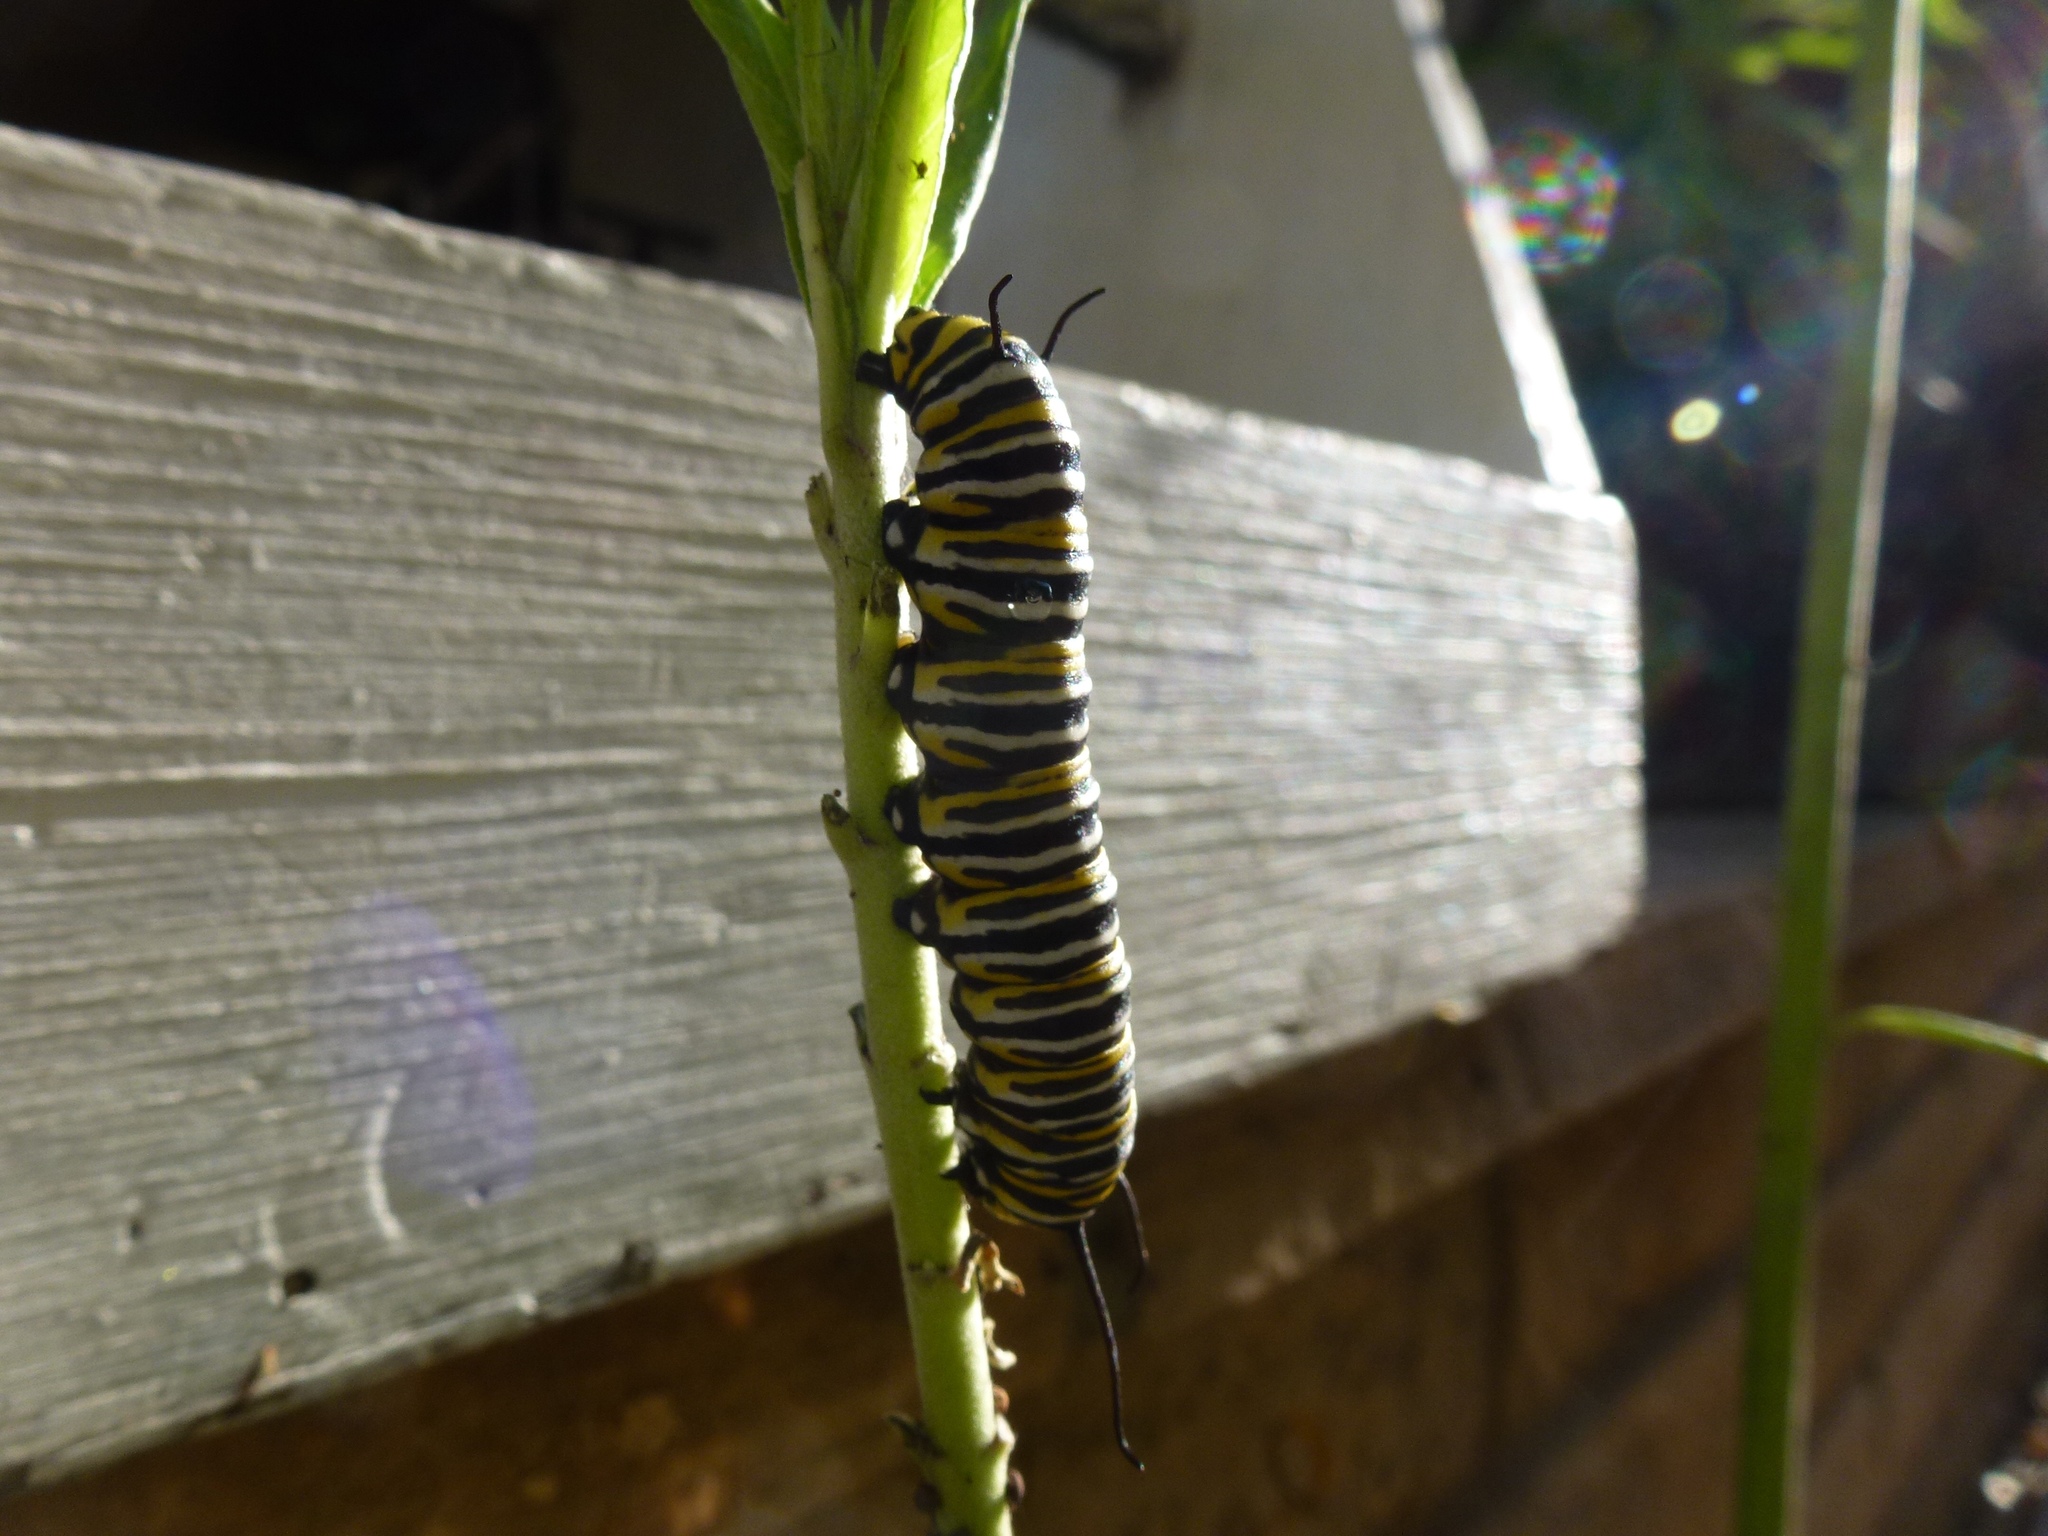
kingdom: Animalia
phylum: Arthropoda
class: Insecta
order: Lepidoptera
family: Nymphalidae
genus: Danaus
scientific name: Danaus plexippus
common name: Monarch
